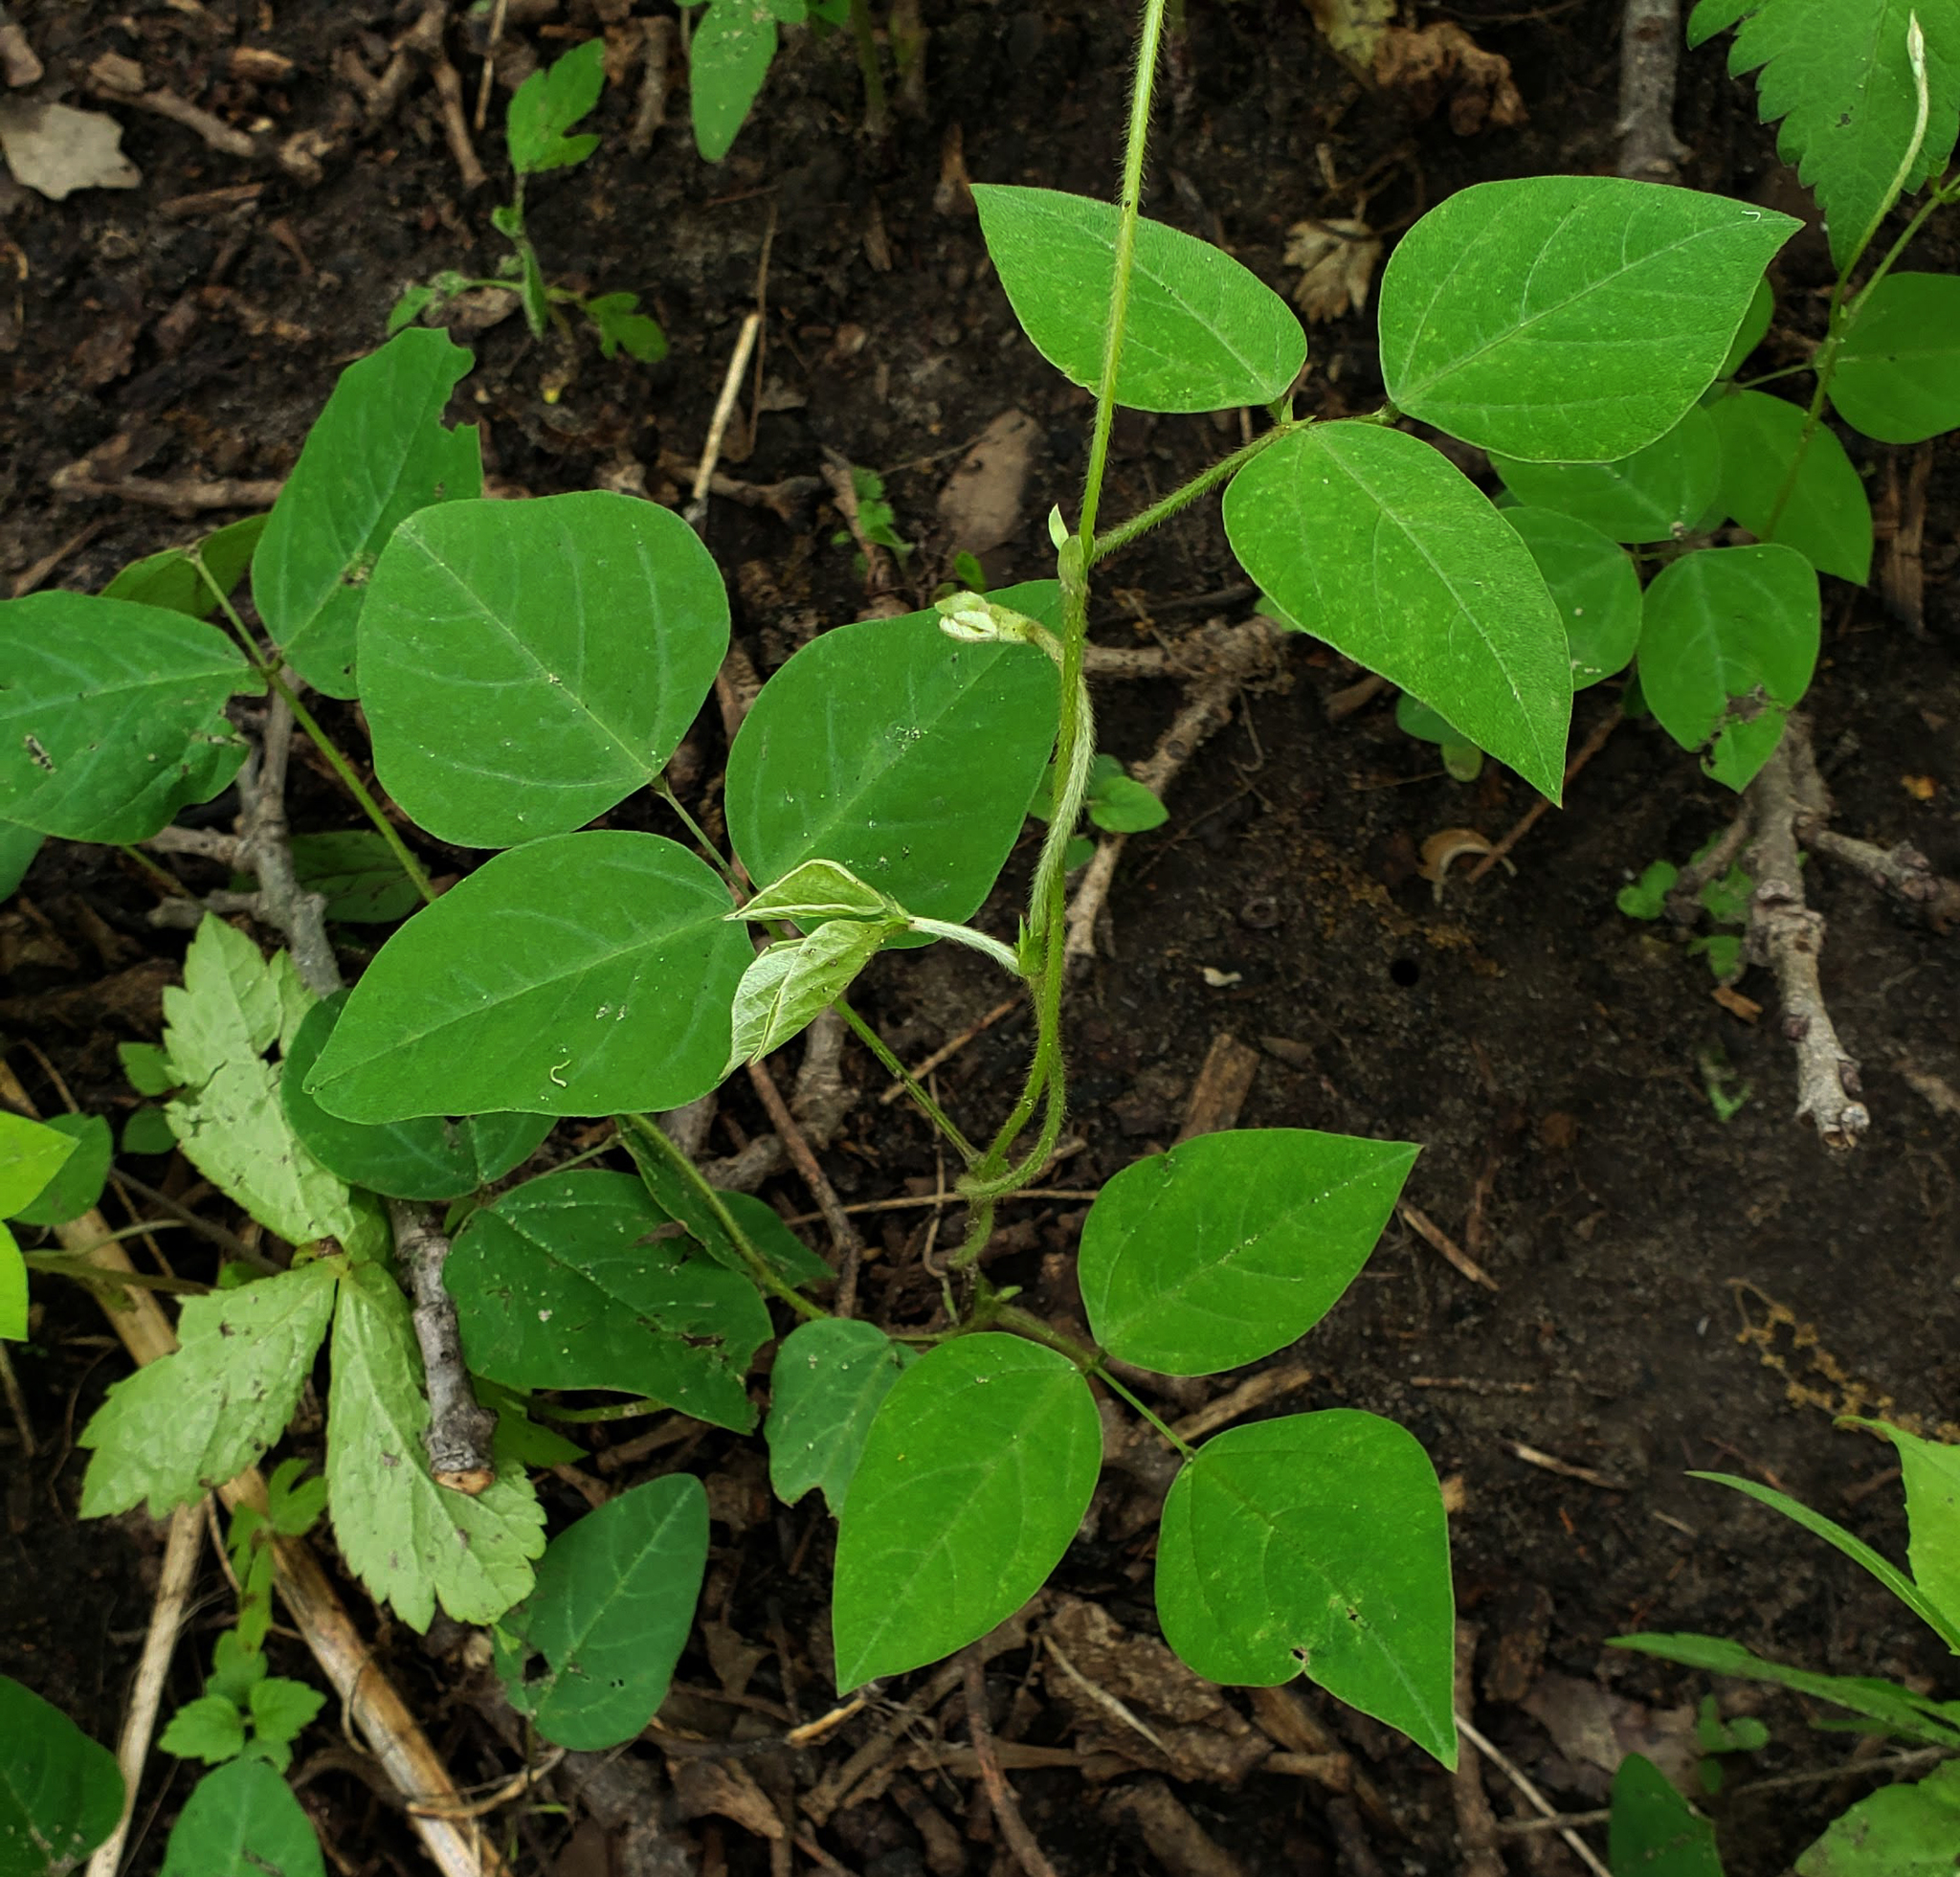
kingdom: Plantae
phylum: Tracheophyta
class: Magnoliopsida
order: Fabales
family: Fabaceae
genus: Amphicarpaea
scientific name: Amphicarpaea bracteata
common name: American hog peanut
